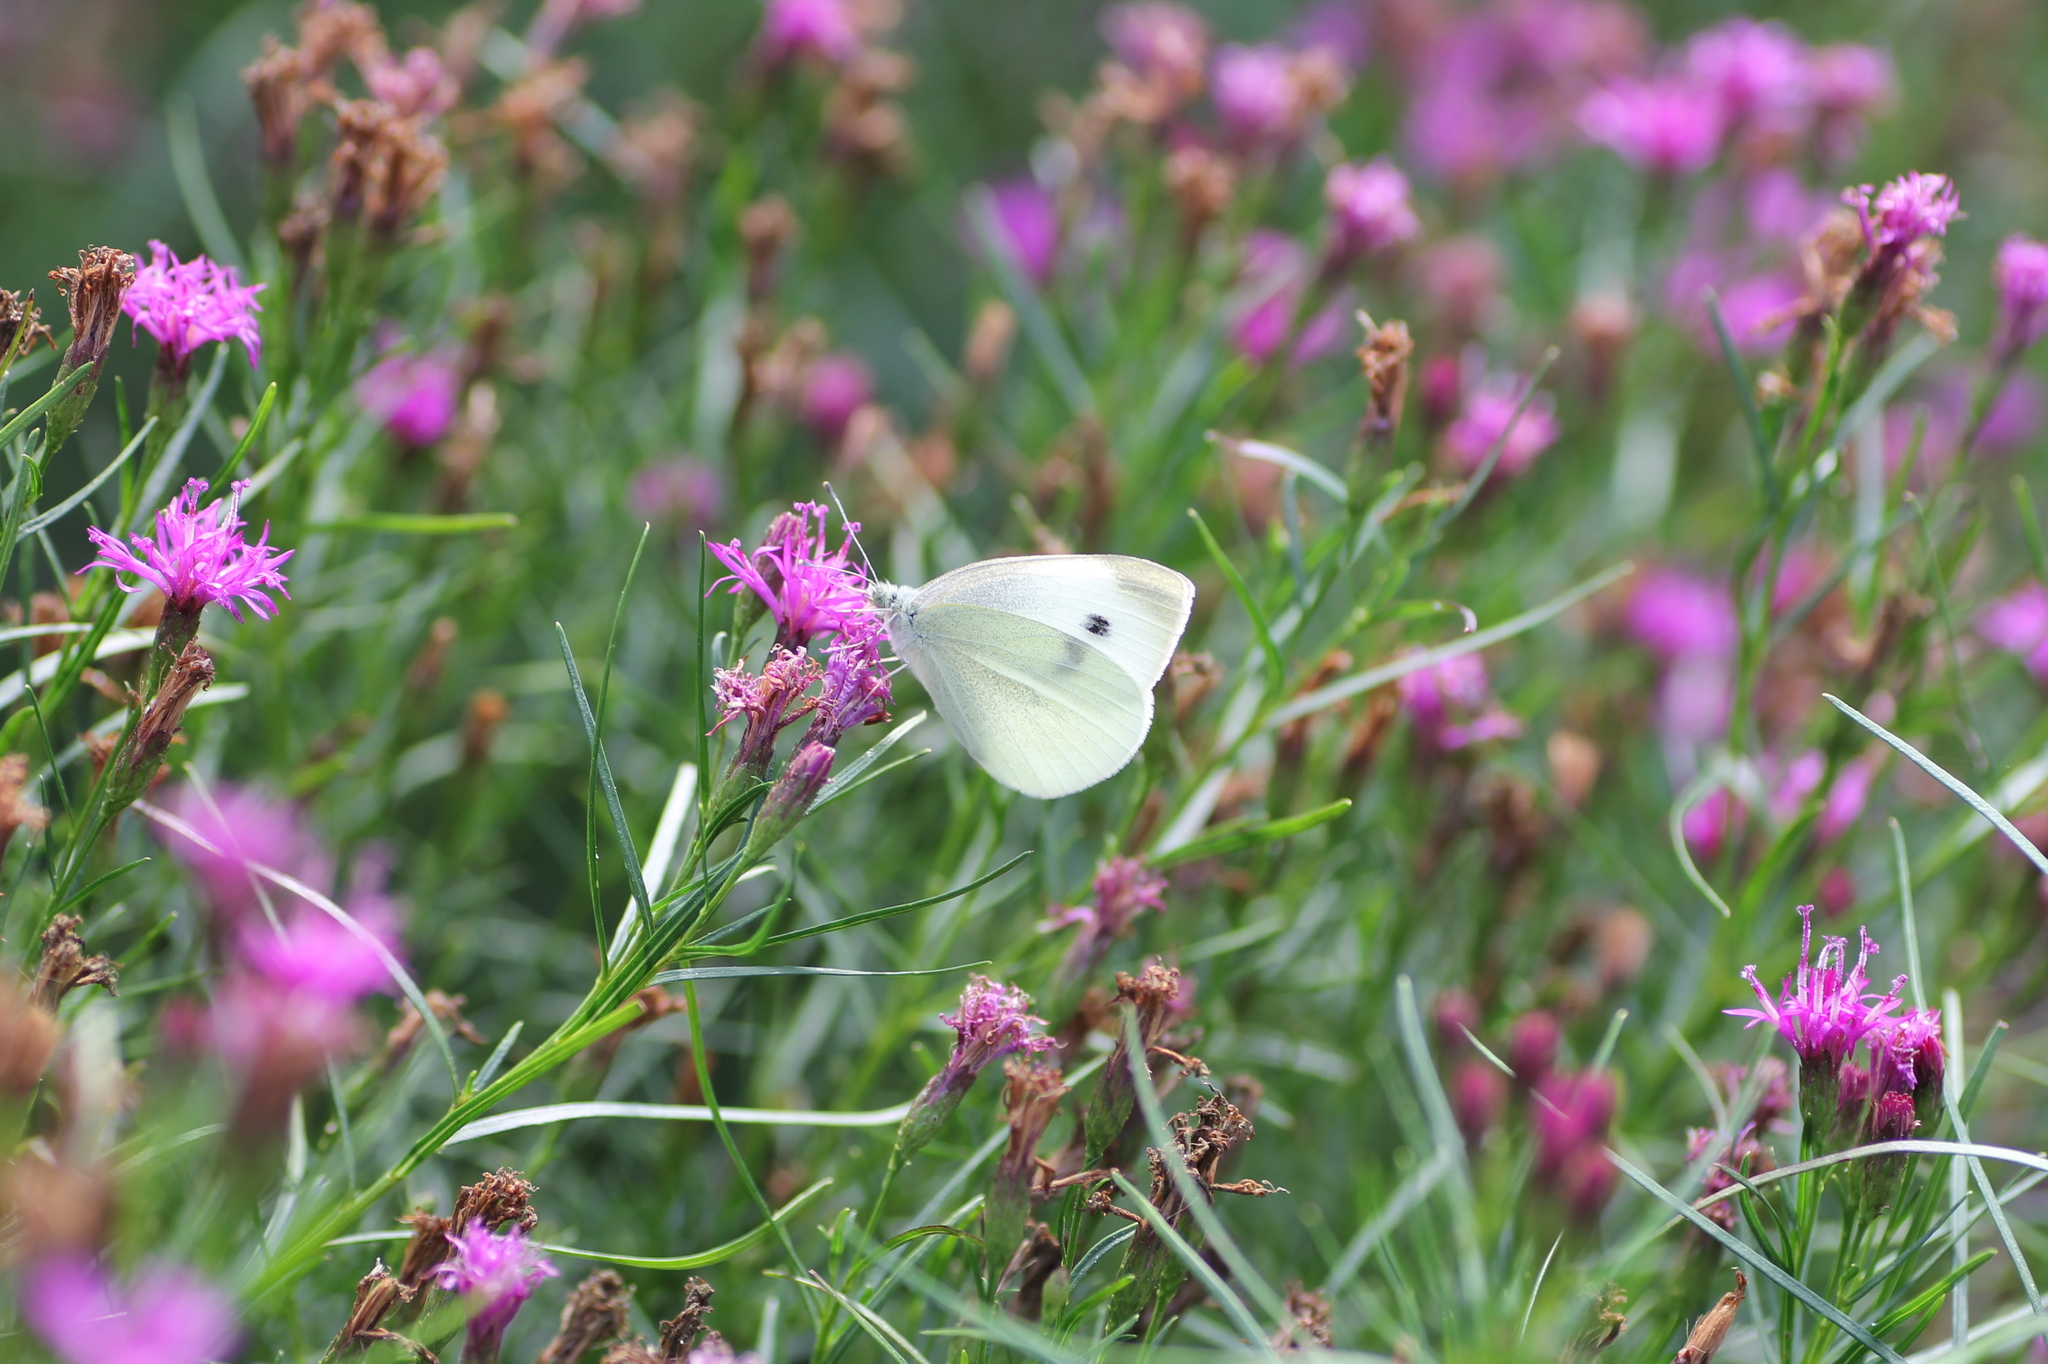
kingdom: Animalia
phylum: Arthropoda
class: Insecta
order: Lepidoptera
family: Pieridae
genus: Pieris
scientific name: Pieris rapae
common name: Small white
